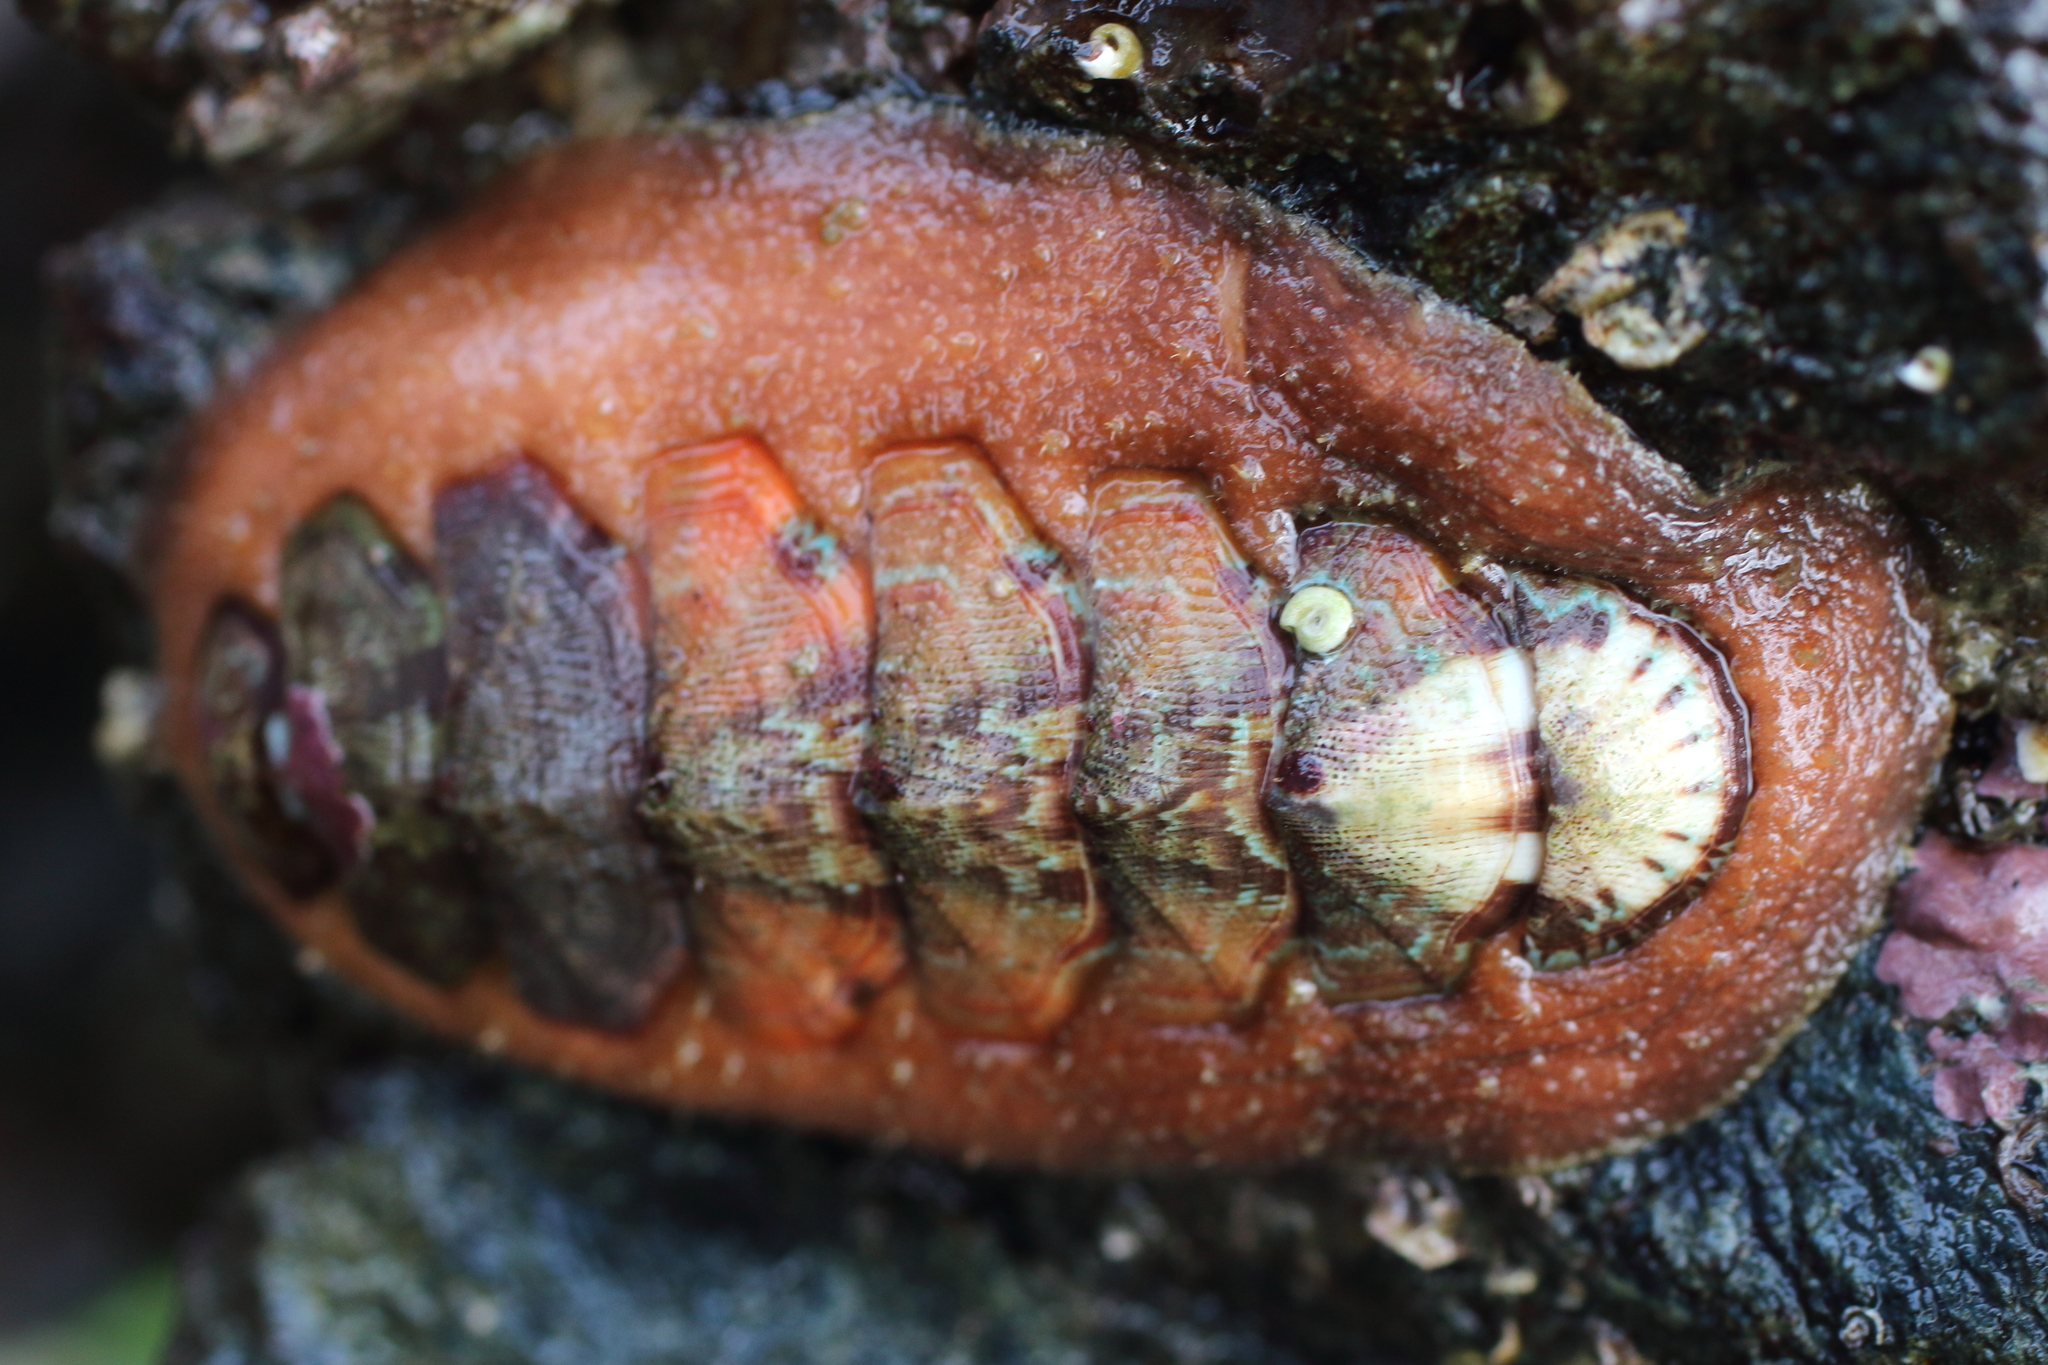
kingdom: Animalia
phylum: Mollusca
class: Polyplacophora
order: Chitonida
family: Mopaliidae
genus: Mopalia
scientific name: Mopalia swanii
